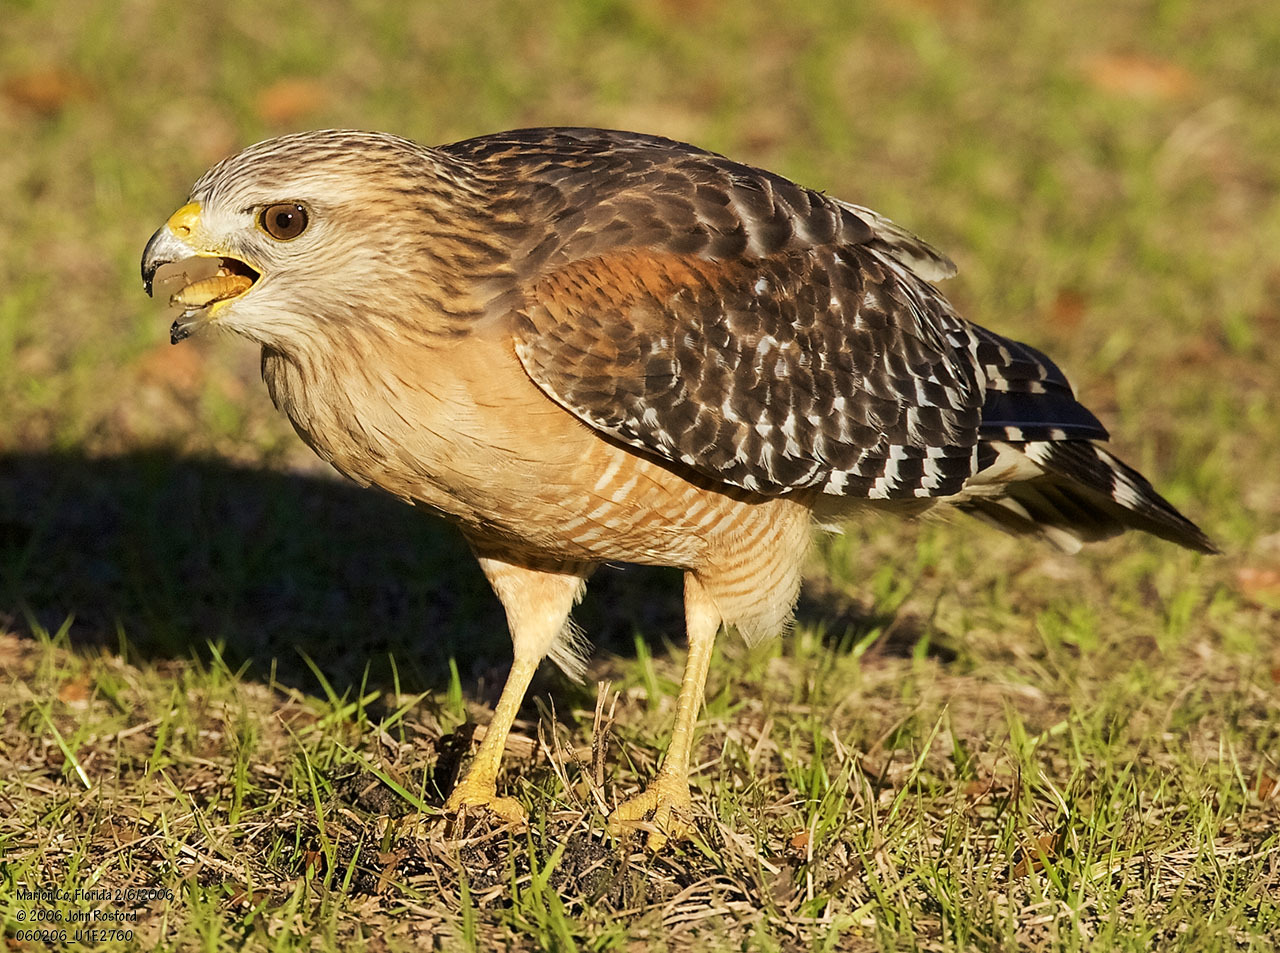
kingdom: Animalia
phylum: Chordata
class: Aves
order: Accipitriformes
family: Accipitridae
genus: Buteo
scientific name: Buteo lineatus
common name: Red-shouldered hawk
